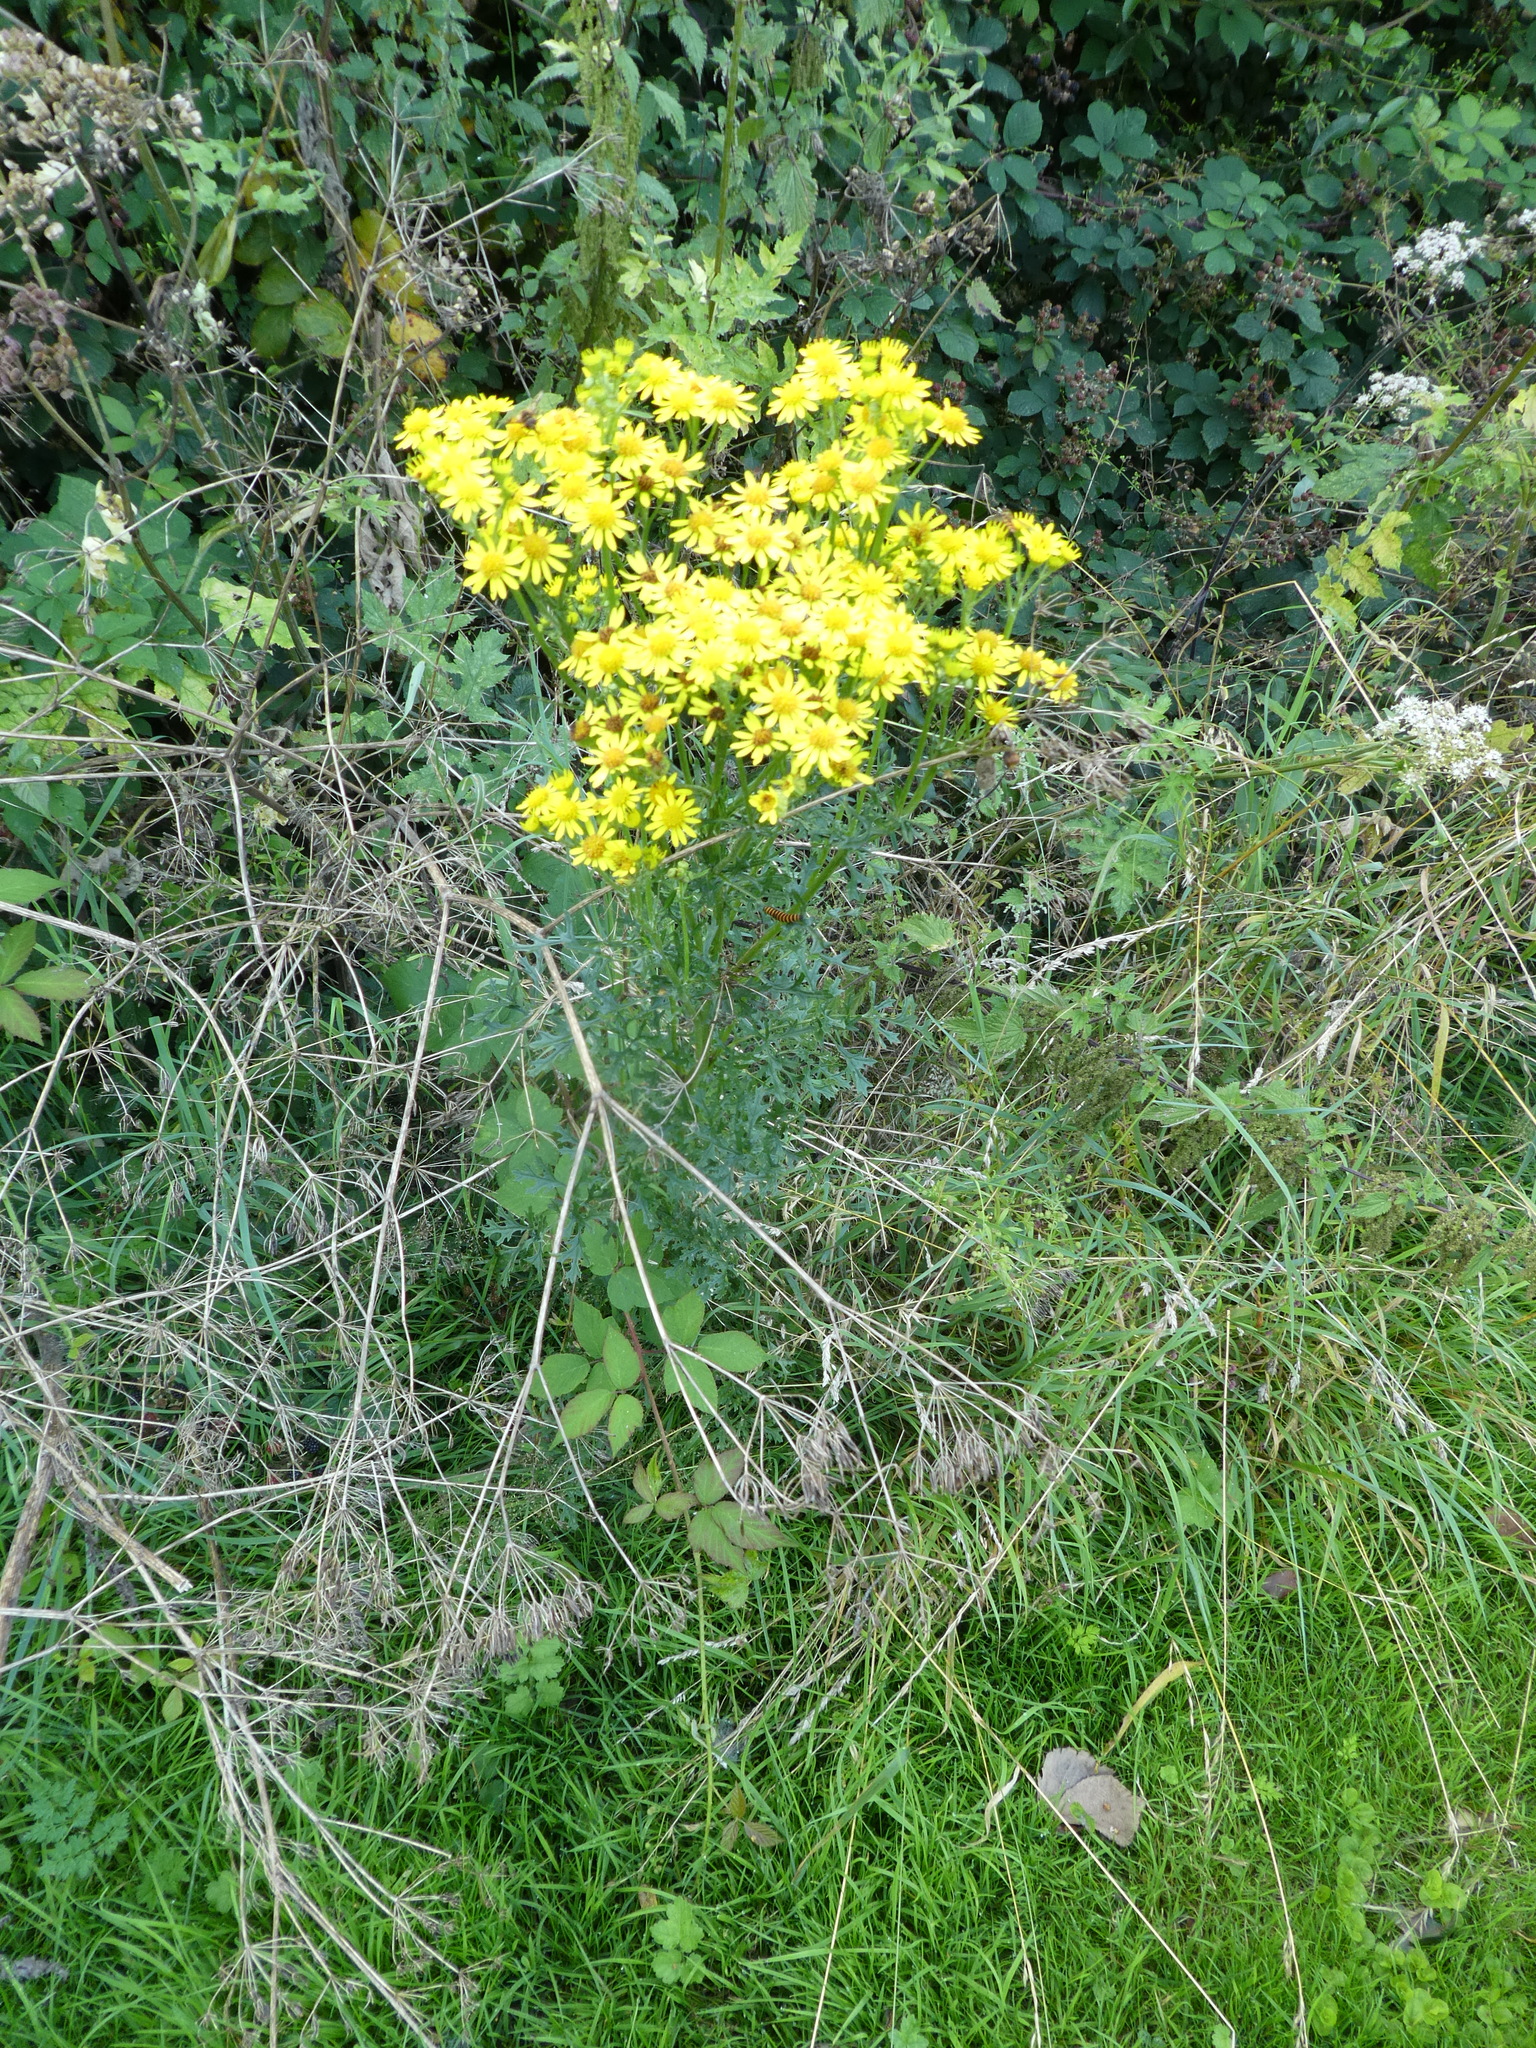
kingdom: Plantae
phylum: Tracheophyta
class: Magnoliopsida
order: Asterales
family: Asteraceae
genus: Jacobaea
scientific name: Jacobaea vulgaris
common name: Stinking willie
